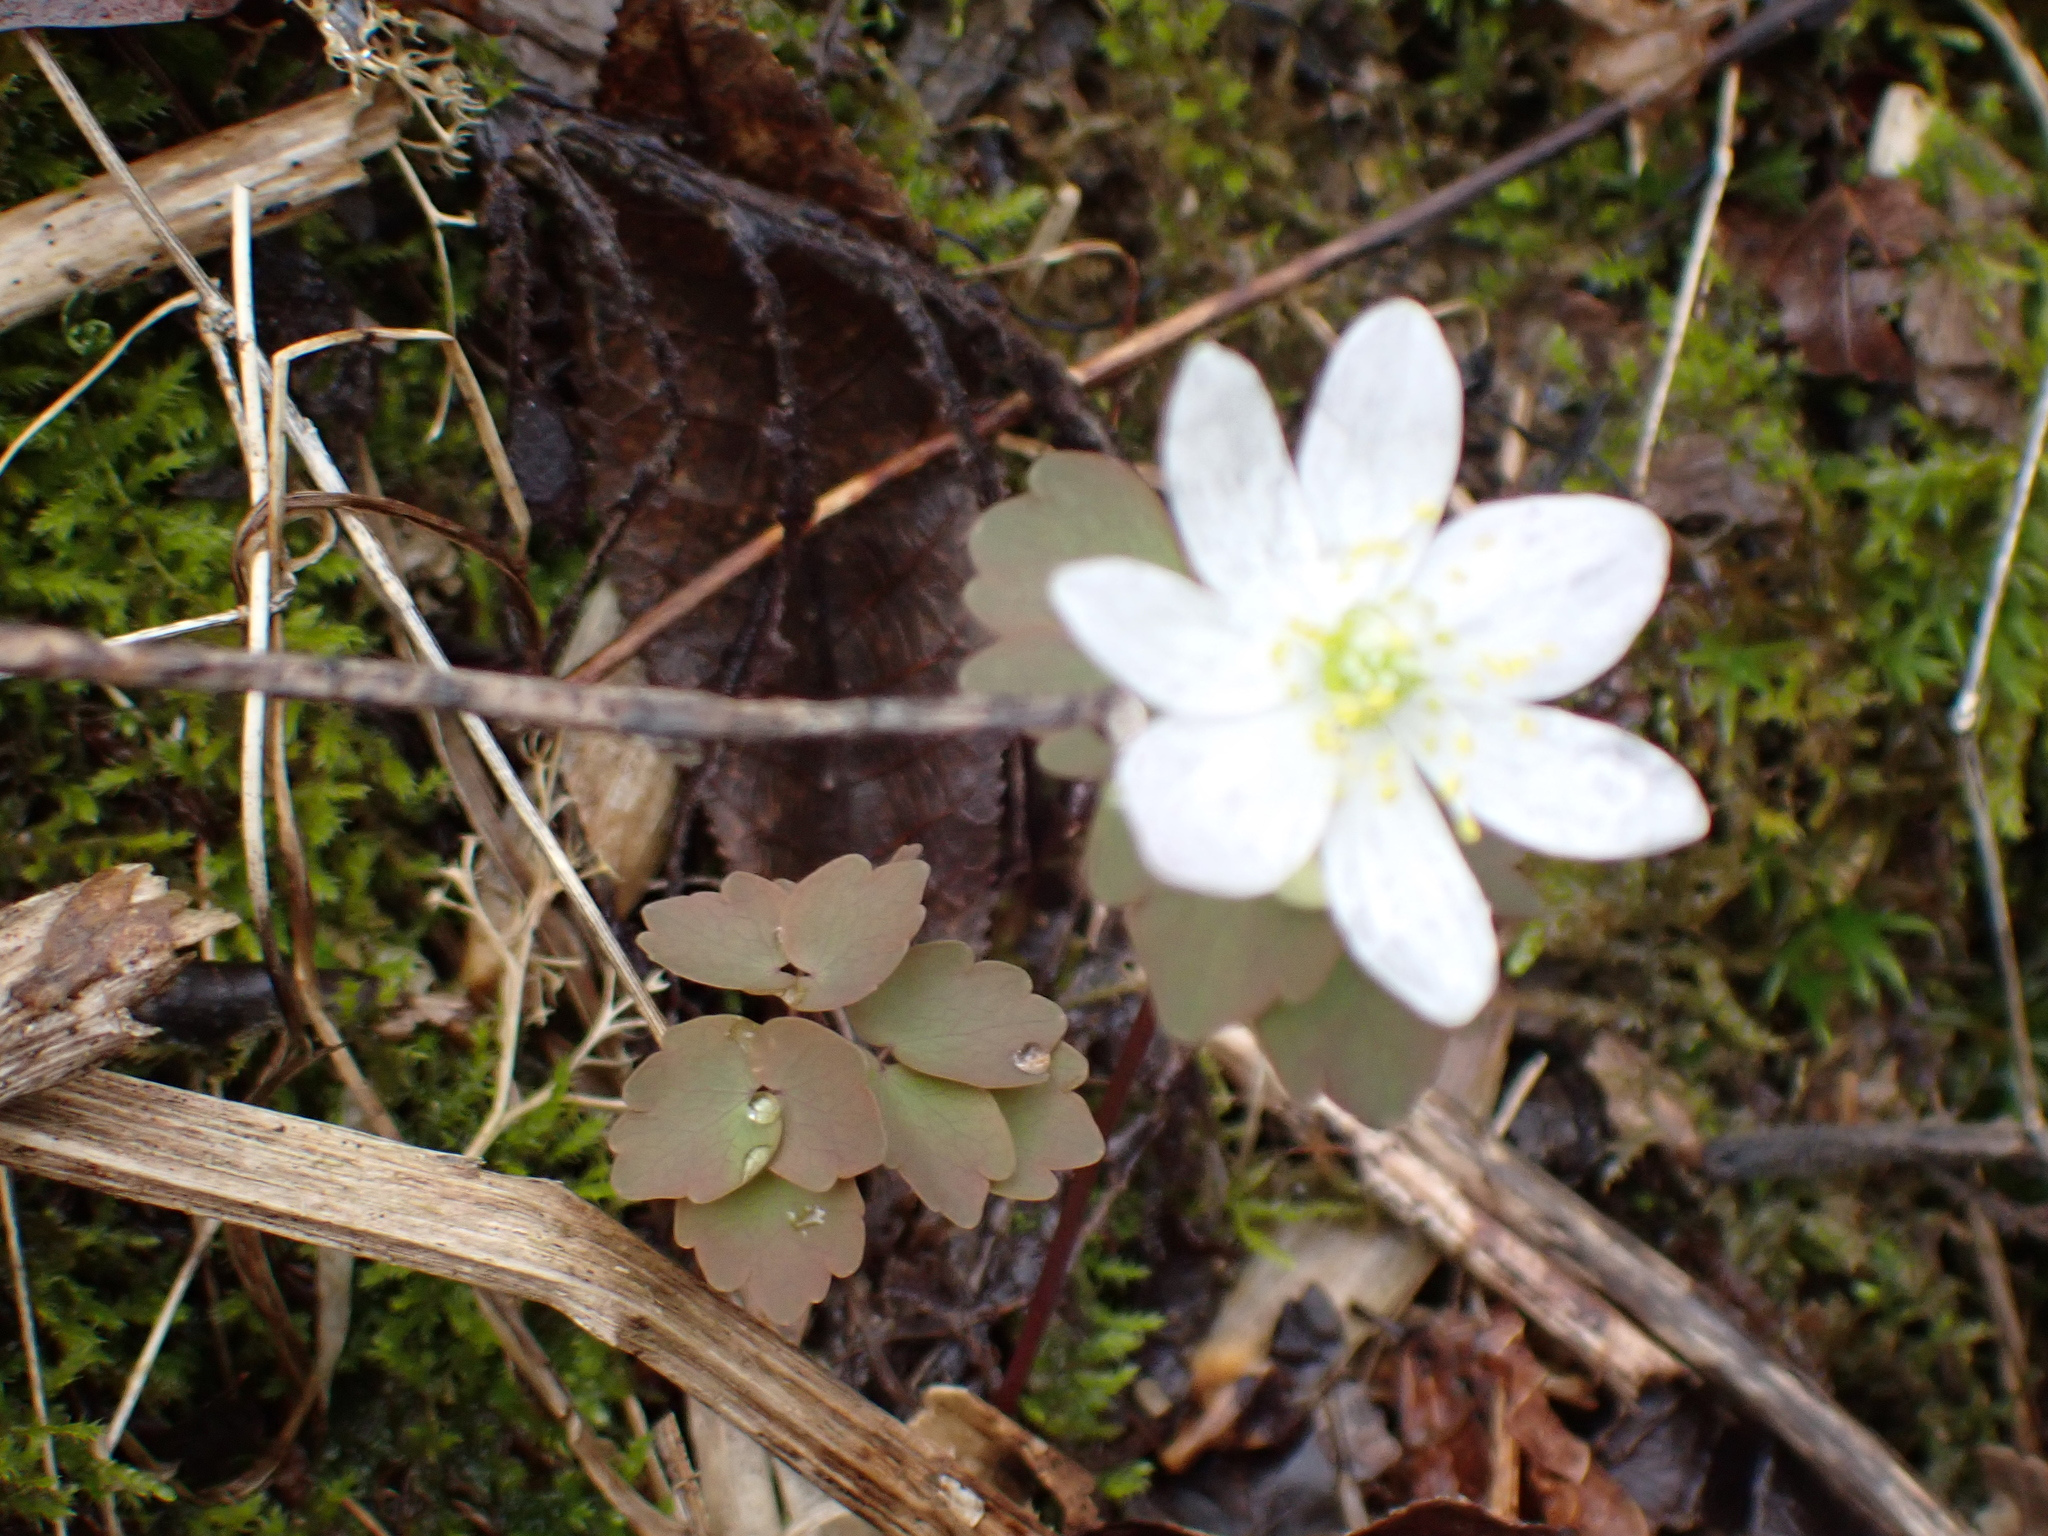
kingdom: Plantae
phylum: Tracheophyta
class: Magnoliopsida
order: Ranunculales
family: Ranunculaceae
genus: Thalictrum
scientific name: Thalictrum thalictroides
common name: Rue-anemone
